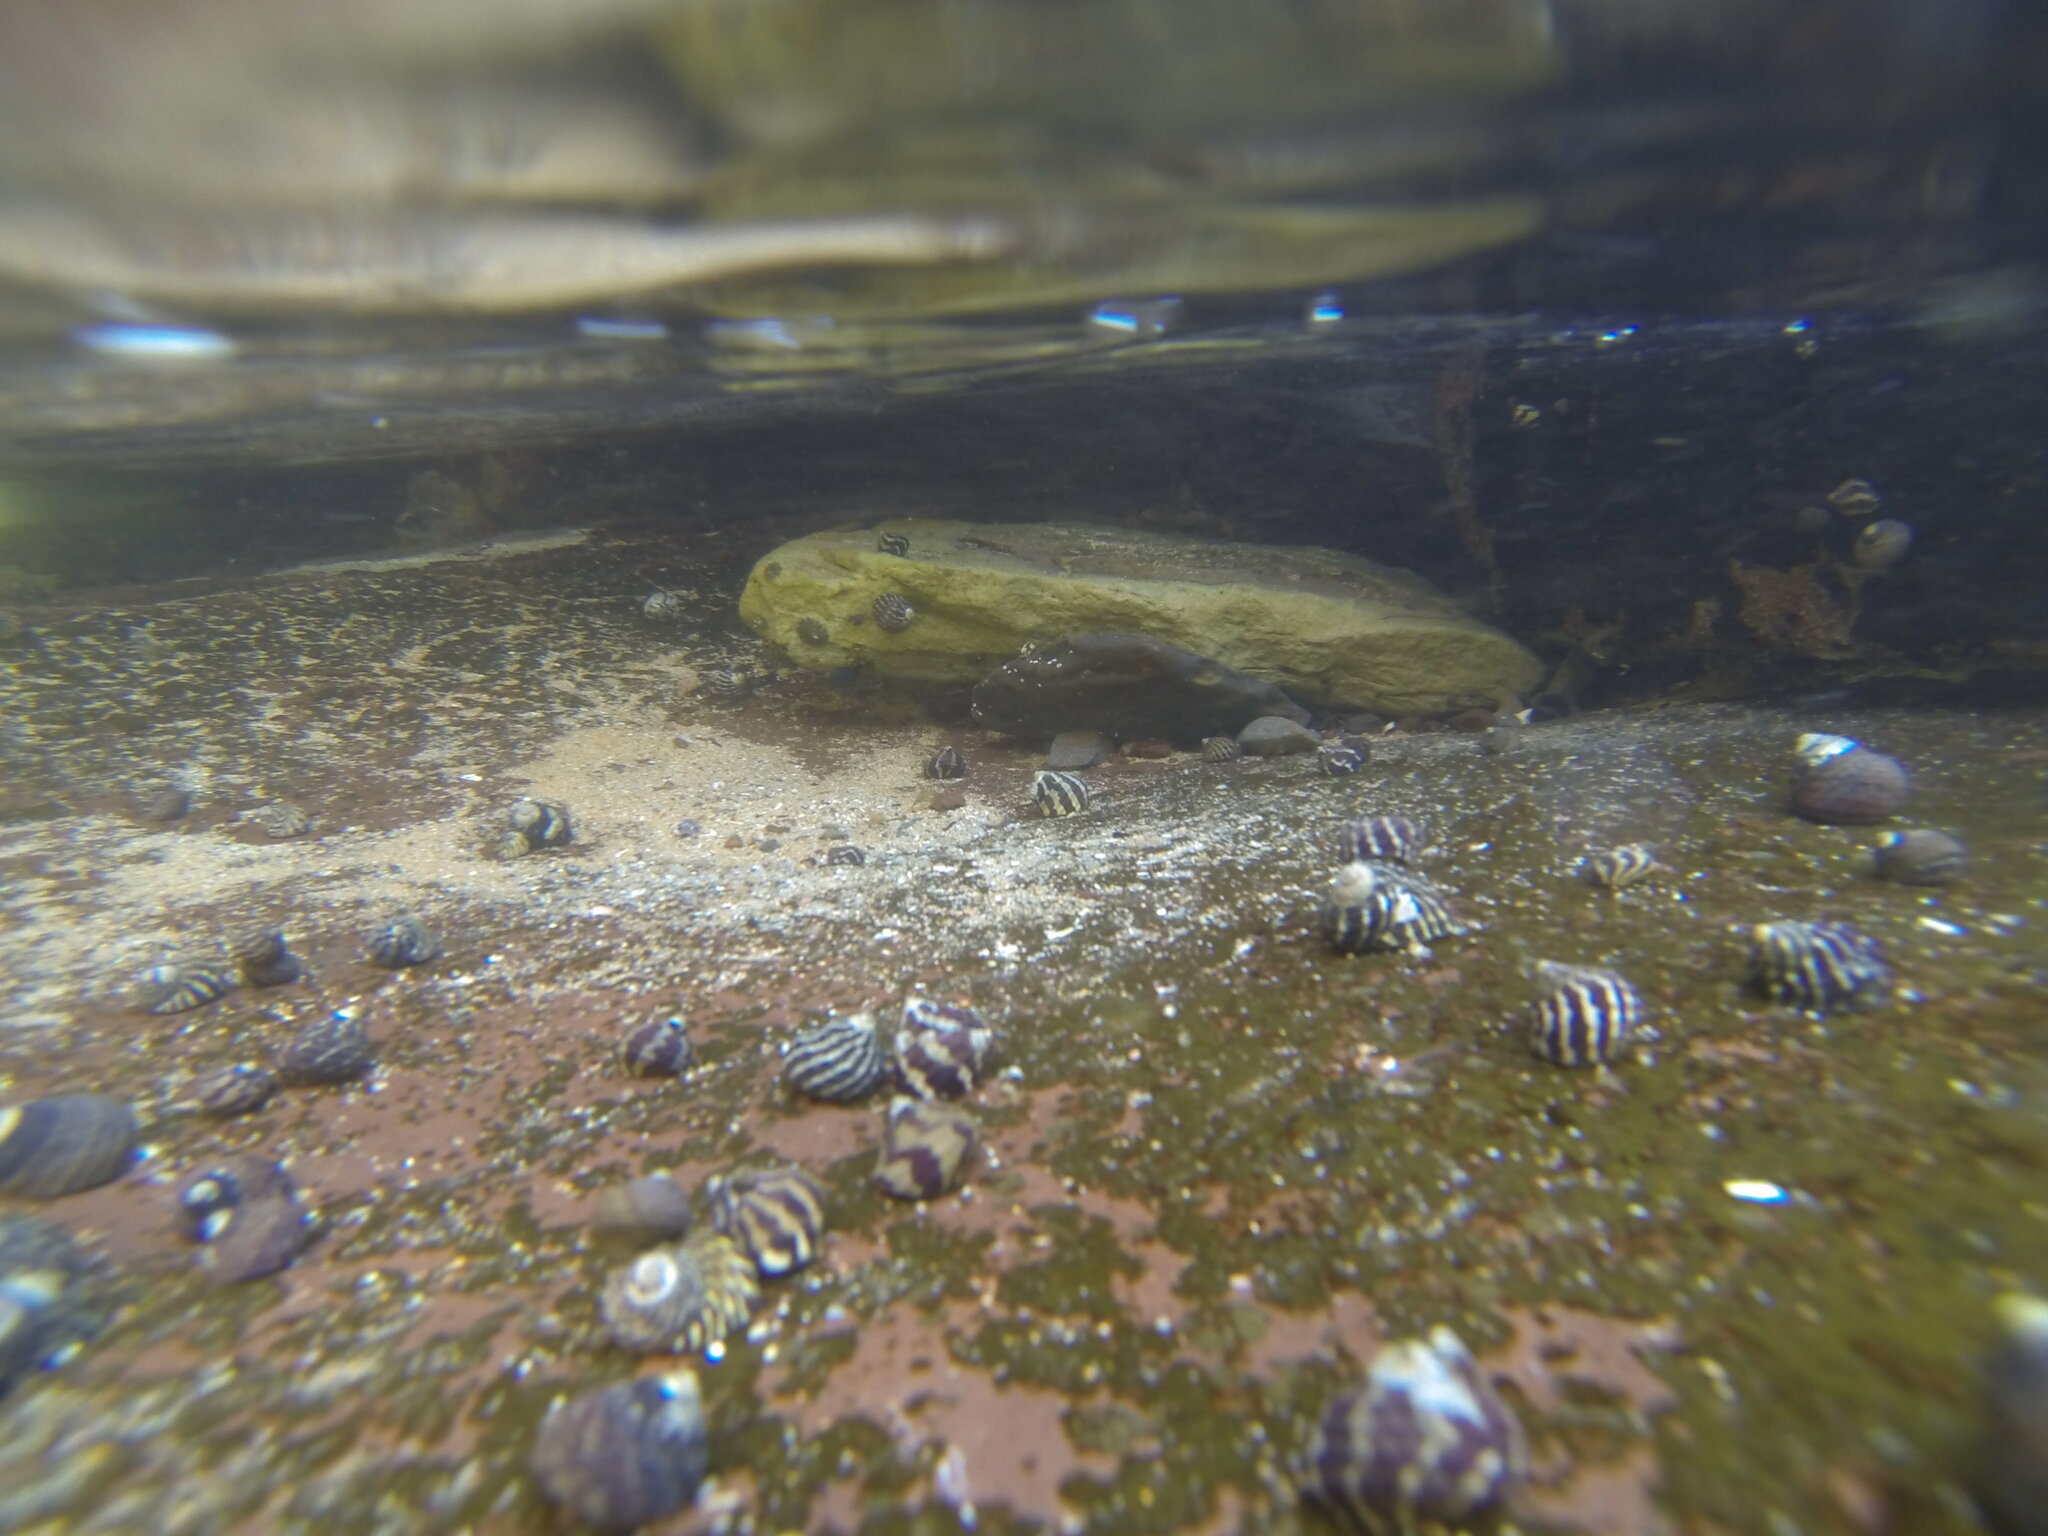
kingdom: Animalia
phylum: Mollusca
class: Gastropoda
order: Trochida
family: Trochidae
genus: Austrocochlea
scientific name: Austrocochlea porcata
